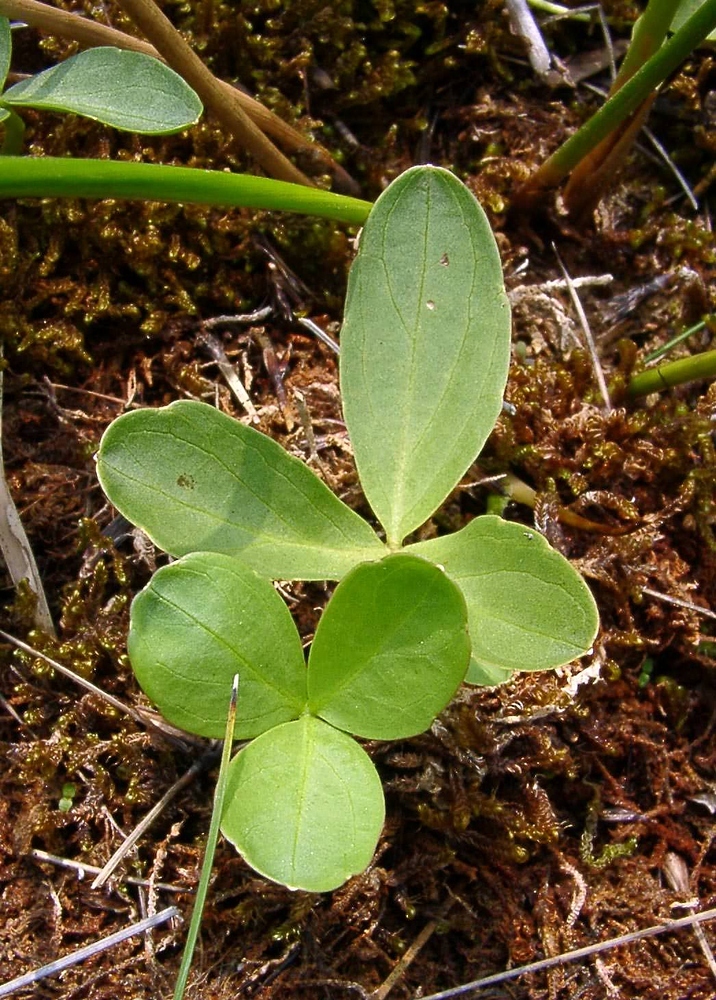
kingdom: Plantae
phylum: Tracheophyta
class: Magnoliopsida
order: Asterales
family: Menyanthaceae
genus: Menyanthes
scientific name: Menyanthes trifoliata
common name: Bogbean
